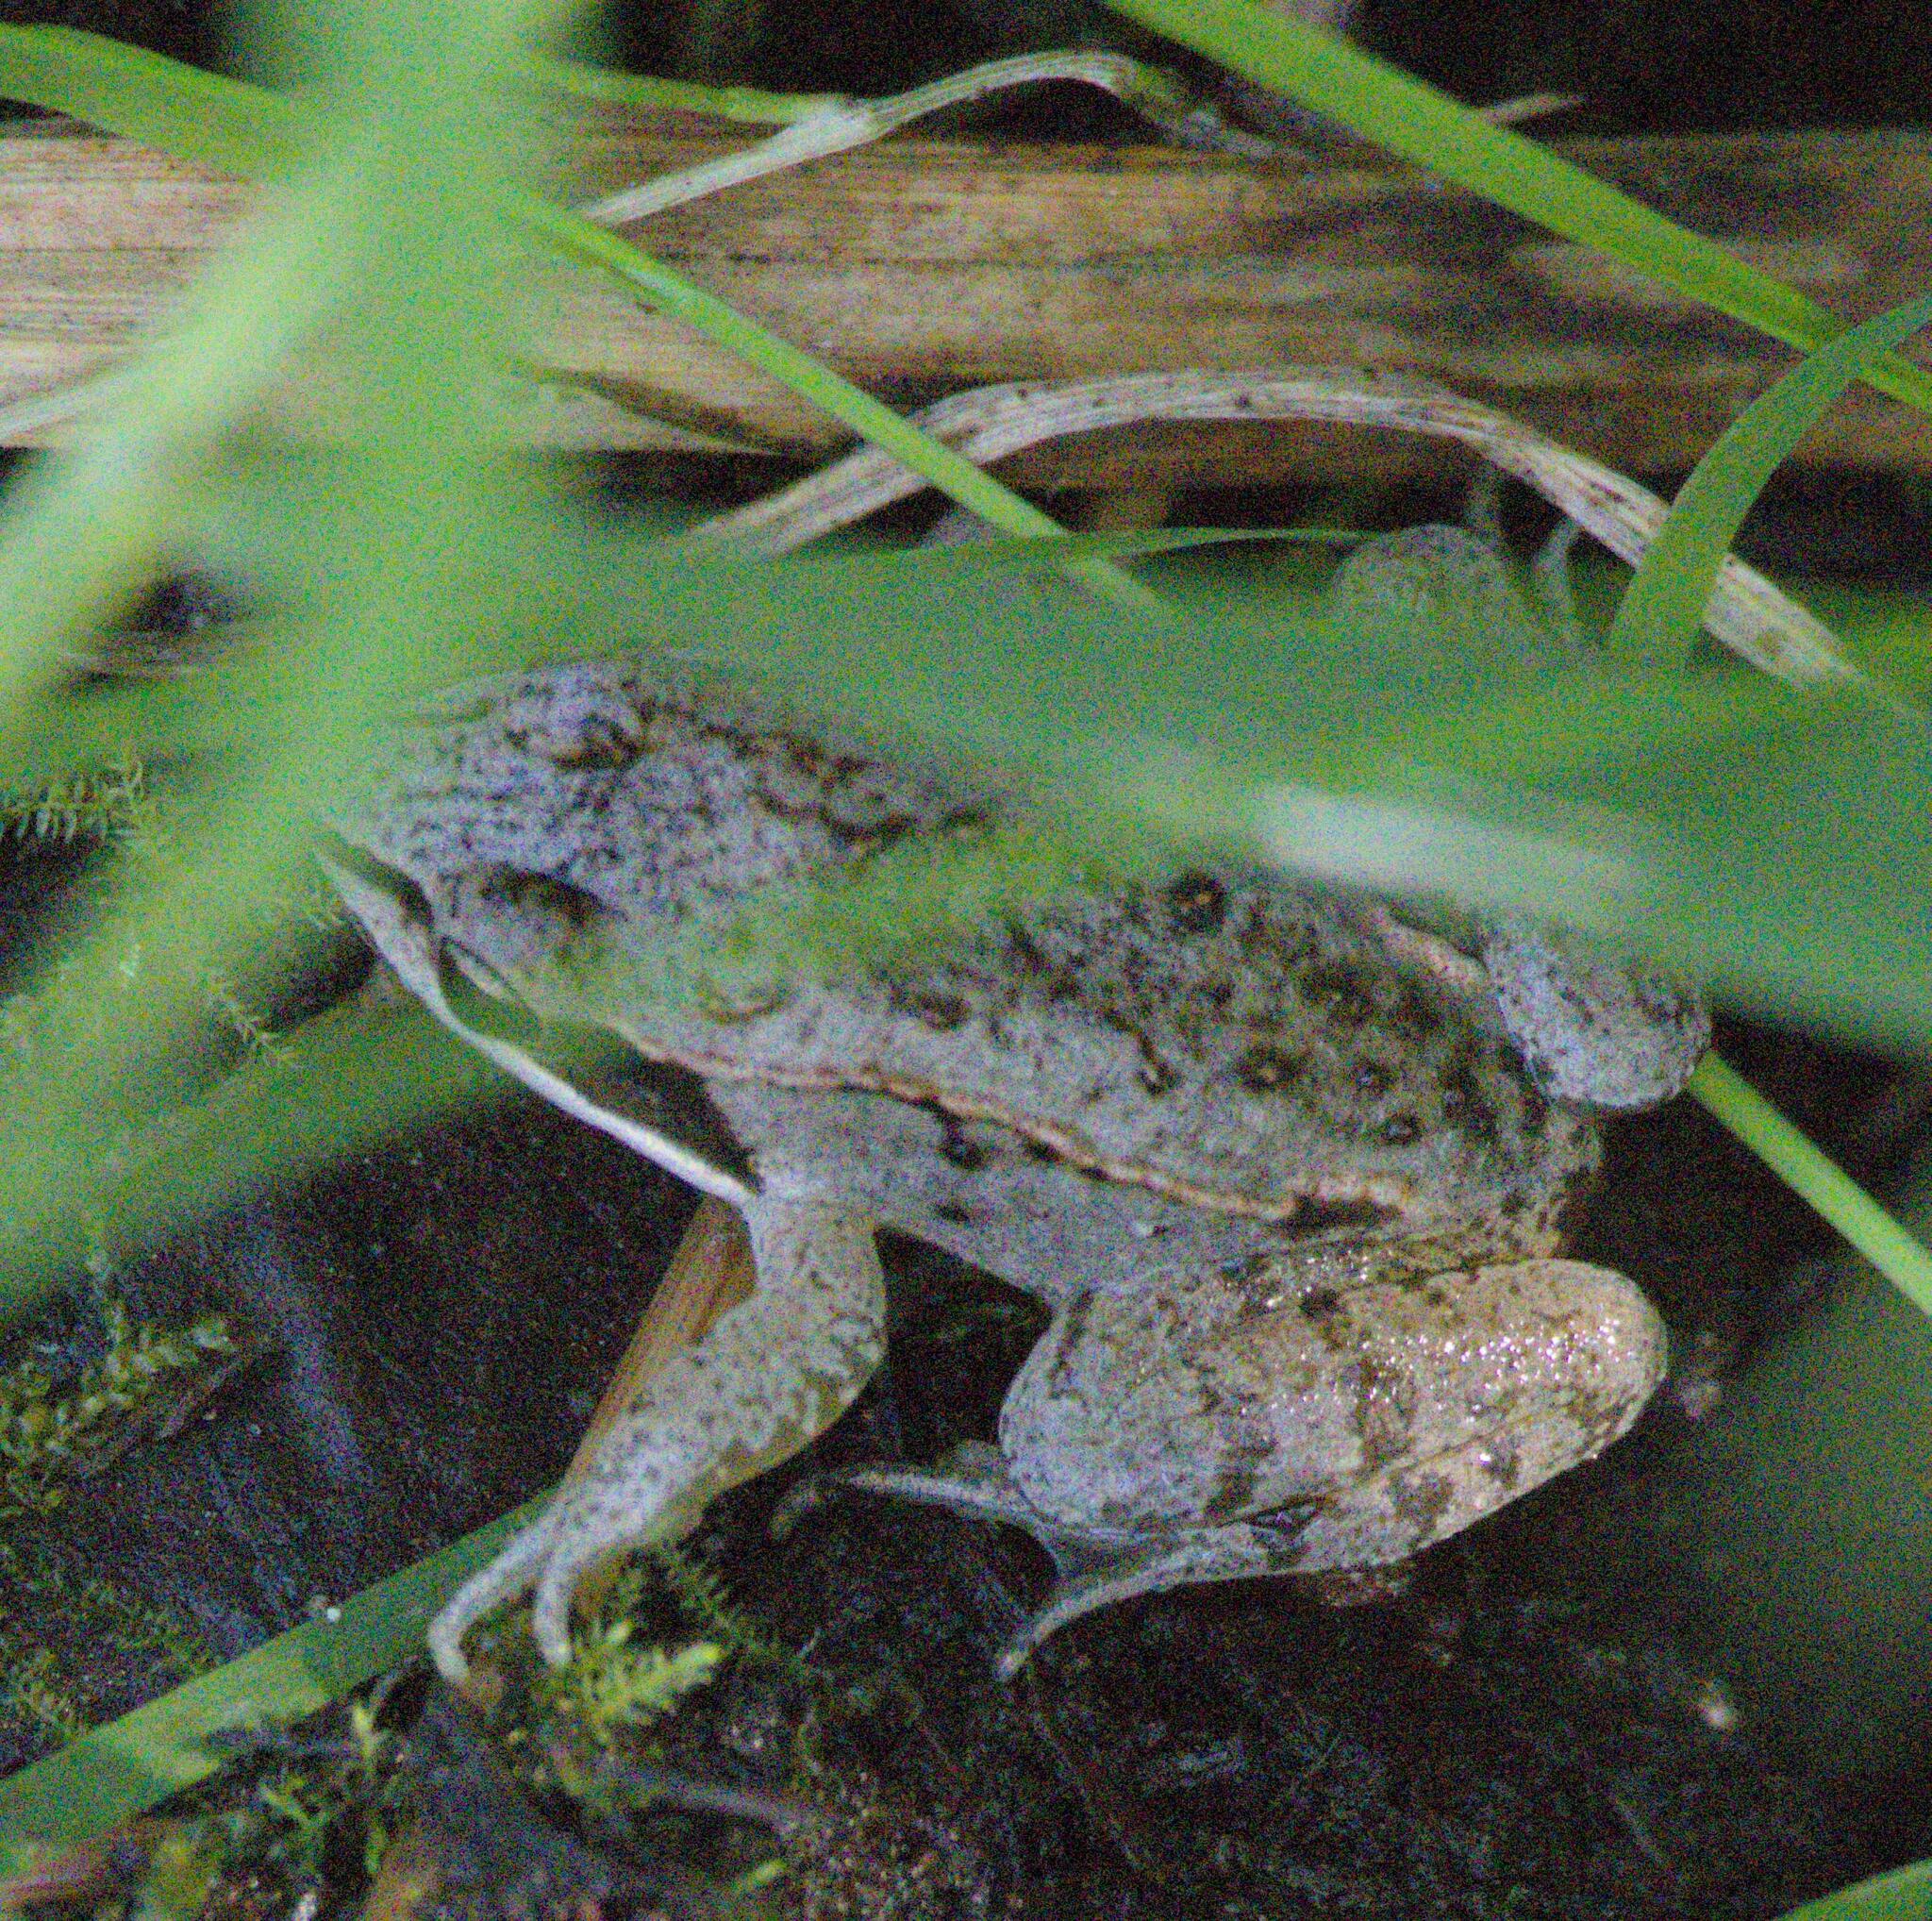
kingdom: Animalia
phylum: Chordata
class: Amphibia
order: Anura
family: Ranidae
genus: Lithobates
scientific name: Lithobates sylvaticus
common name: Wood frog
